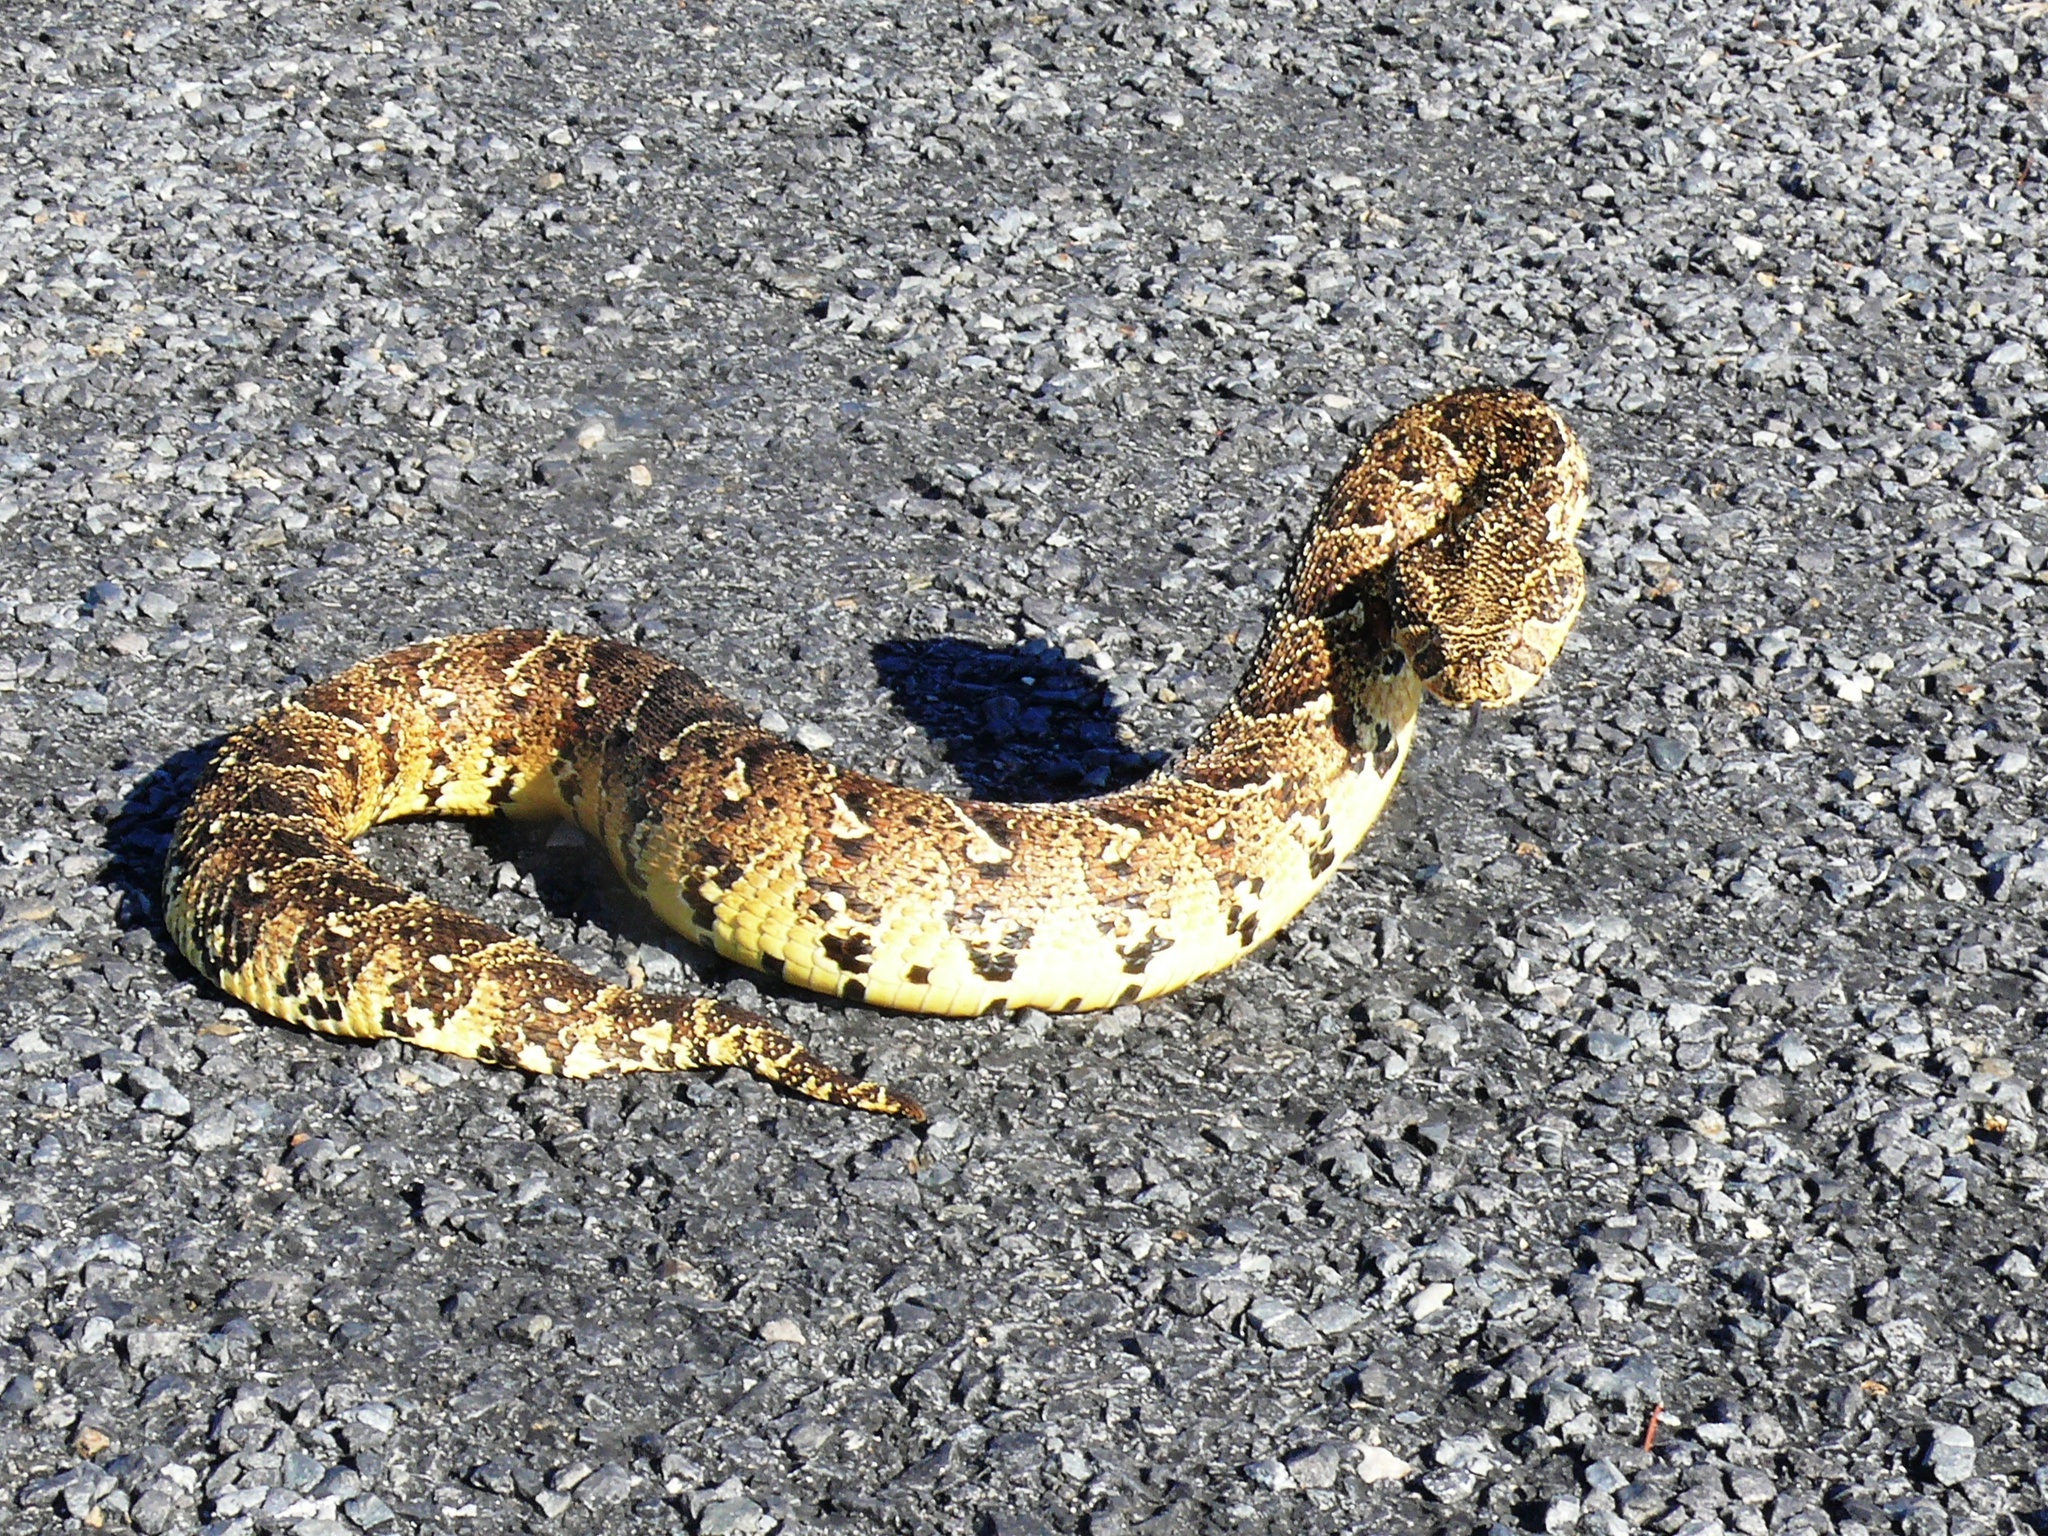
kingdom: Animalia
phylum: Chordata
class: Squamata
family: Viperidae
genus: Bitis
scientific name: Bitis arietans
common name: Puff adder
